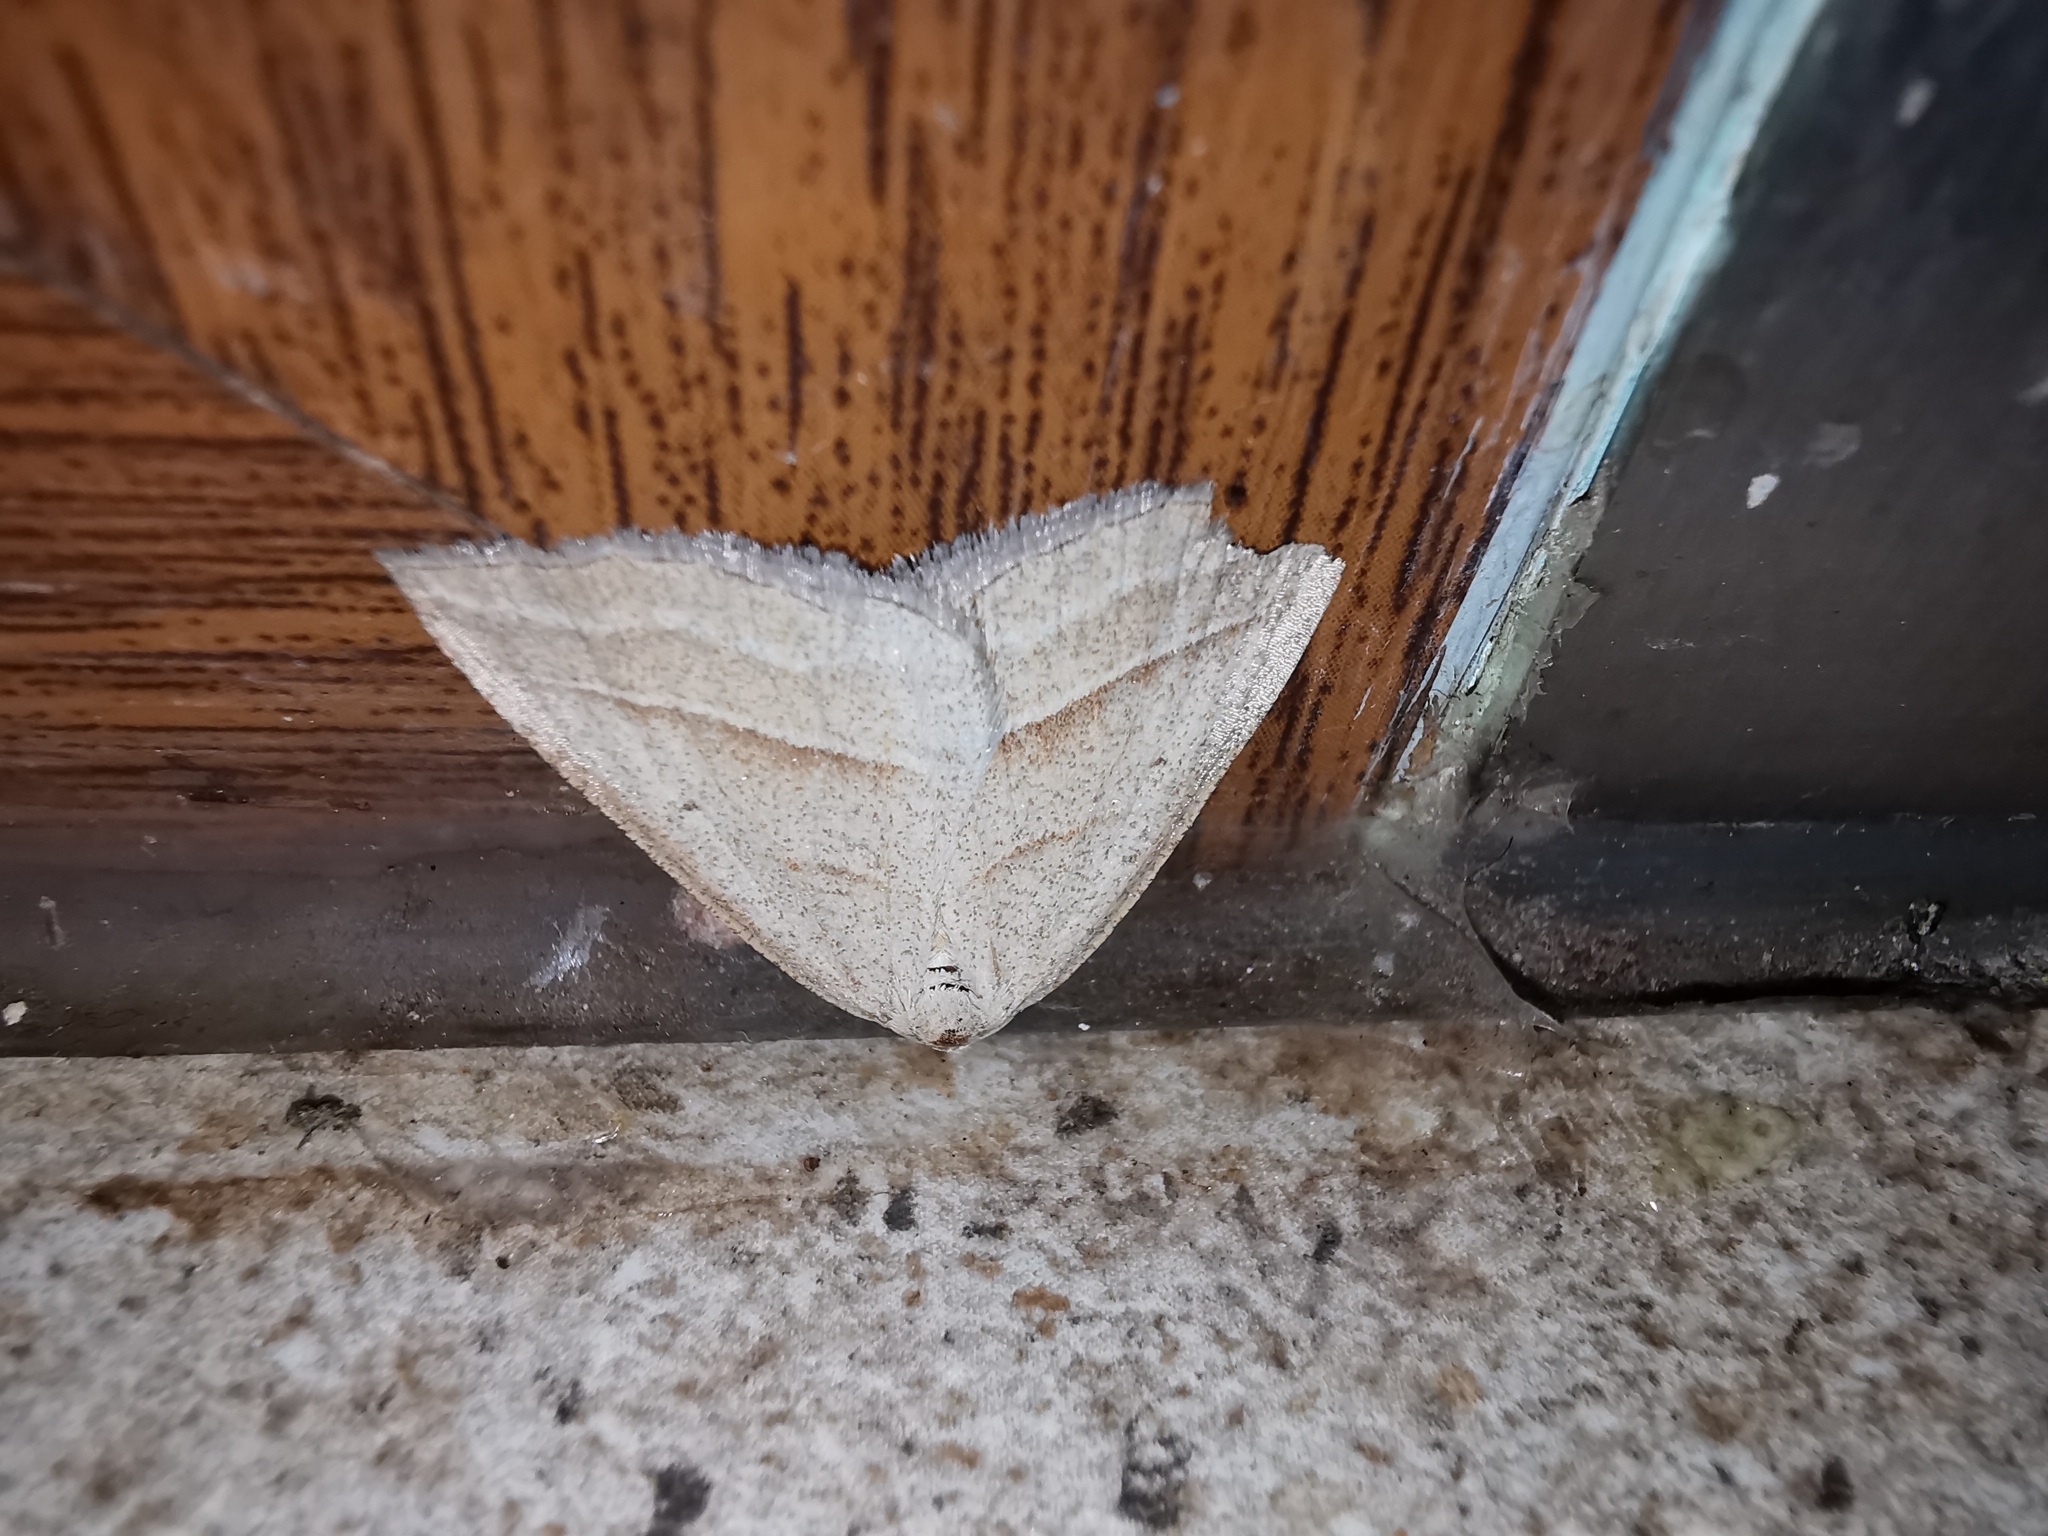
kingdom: Animalia
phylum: Arthropoda
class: Insecta
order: Lepidoptera
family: Pterophoridae
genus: Pterophorus
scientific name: Pterophorus Petrophora chlorosata
